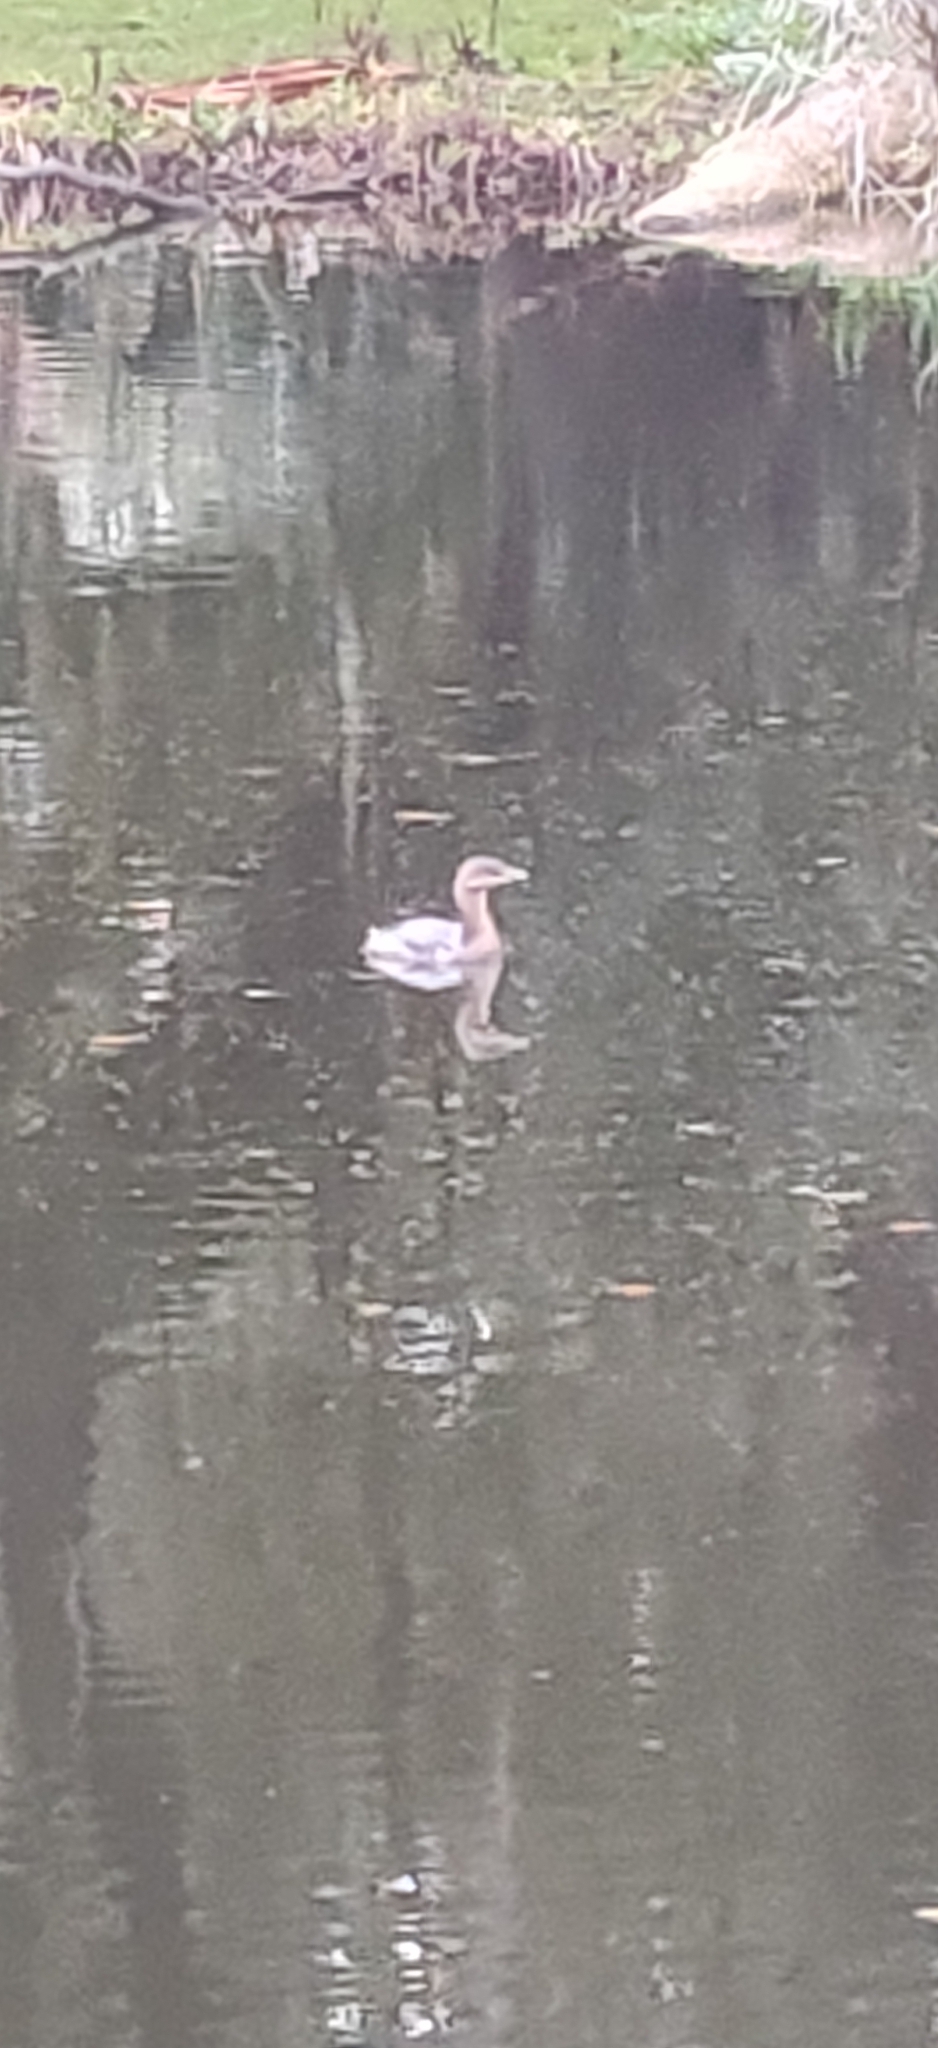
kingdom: Animalia
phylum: Chordata
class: Aves
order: Podicipediformes
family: Podicipedidae
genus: Podilymbus
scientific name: Podilymbus podiceps
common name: Pied-billed grebe
